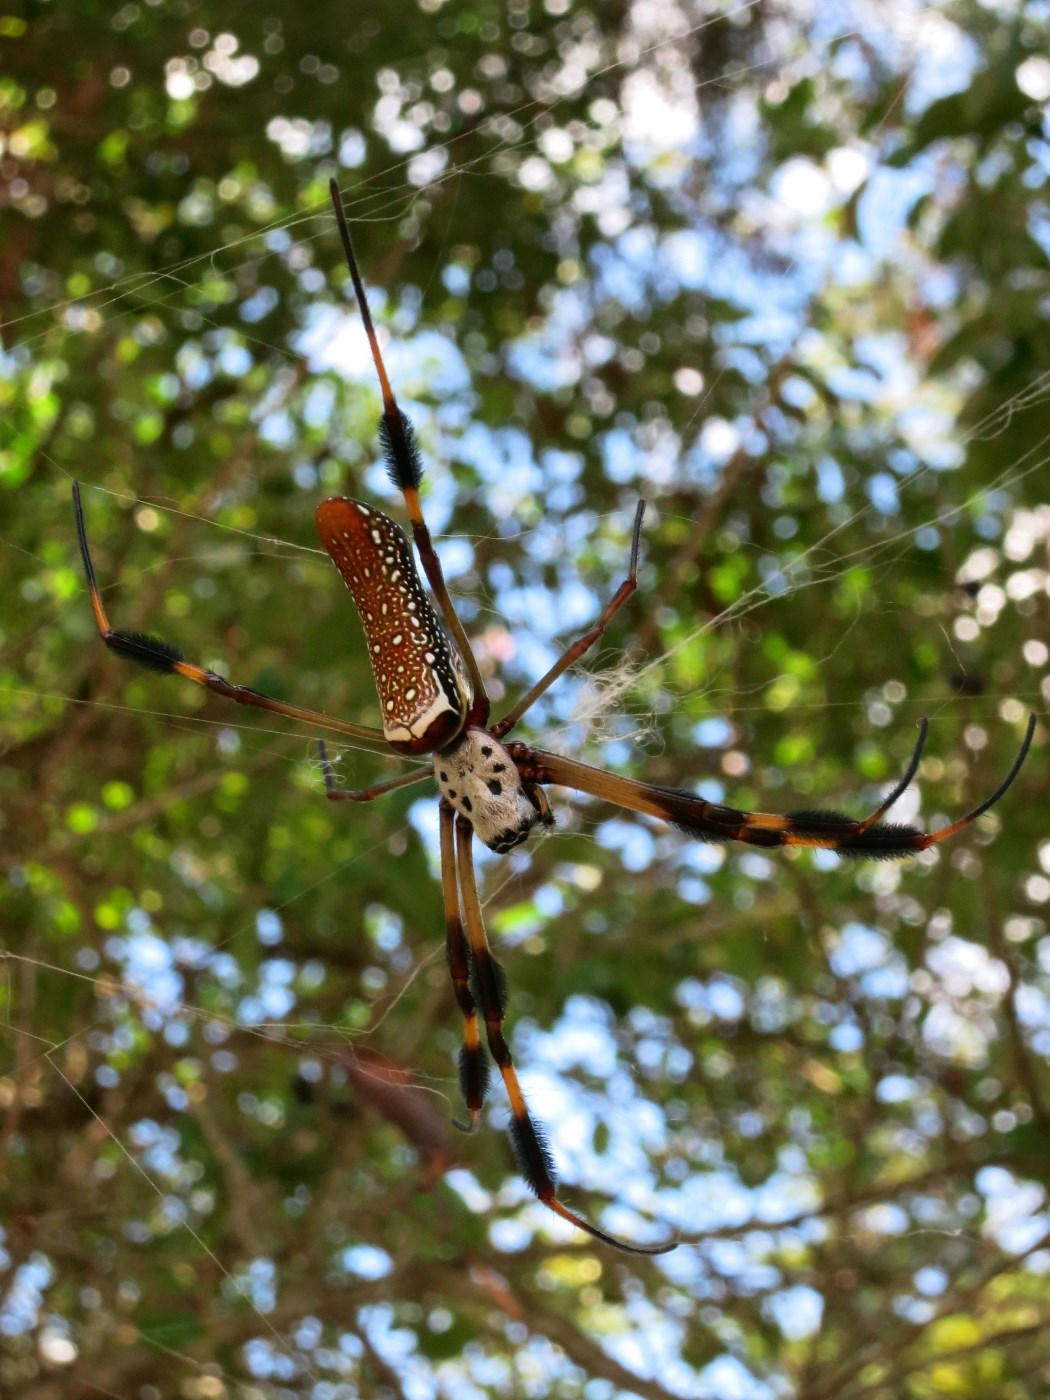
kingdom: Animalia
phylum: Arthropoda
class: Arachnida
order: Araneae
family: Araneidae
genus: Trichonephila
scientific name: Trichonephila clavipes
